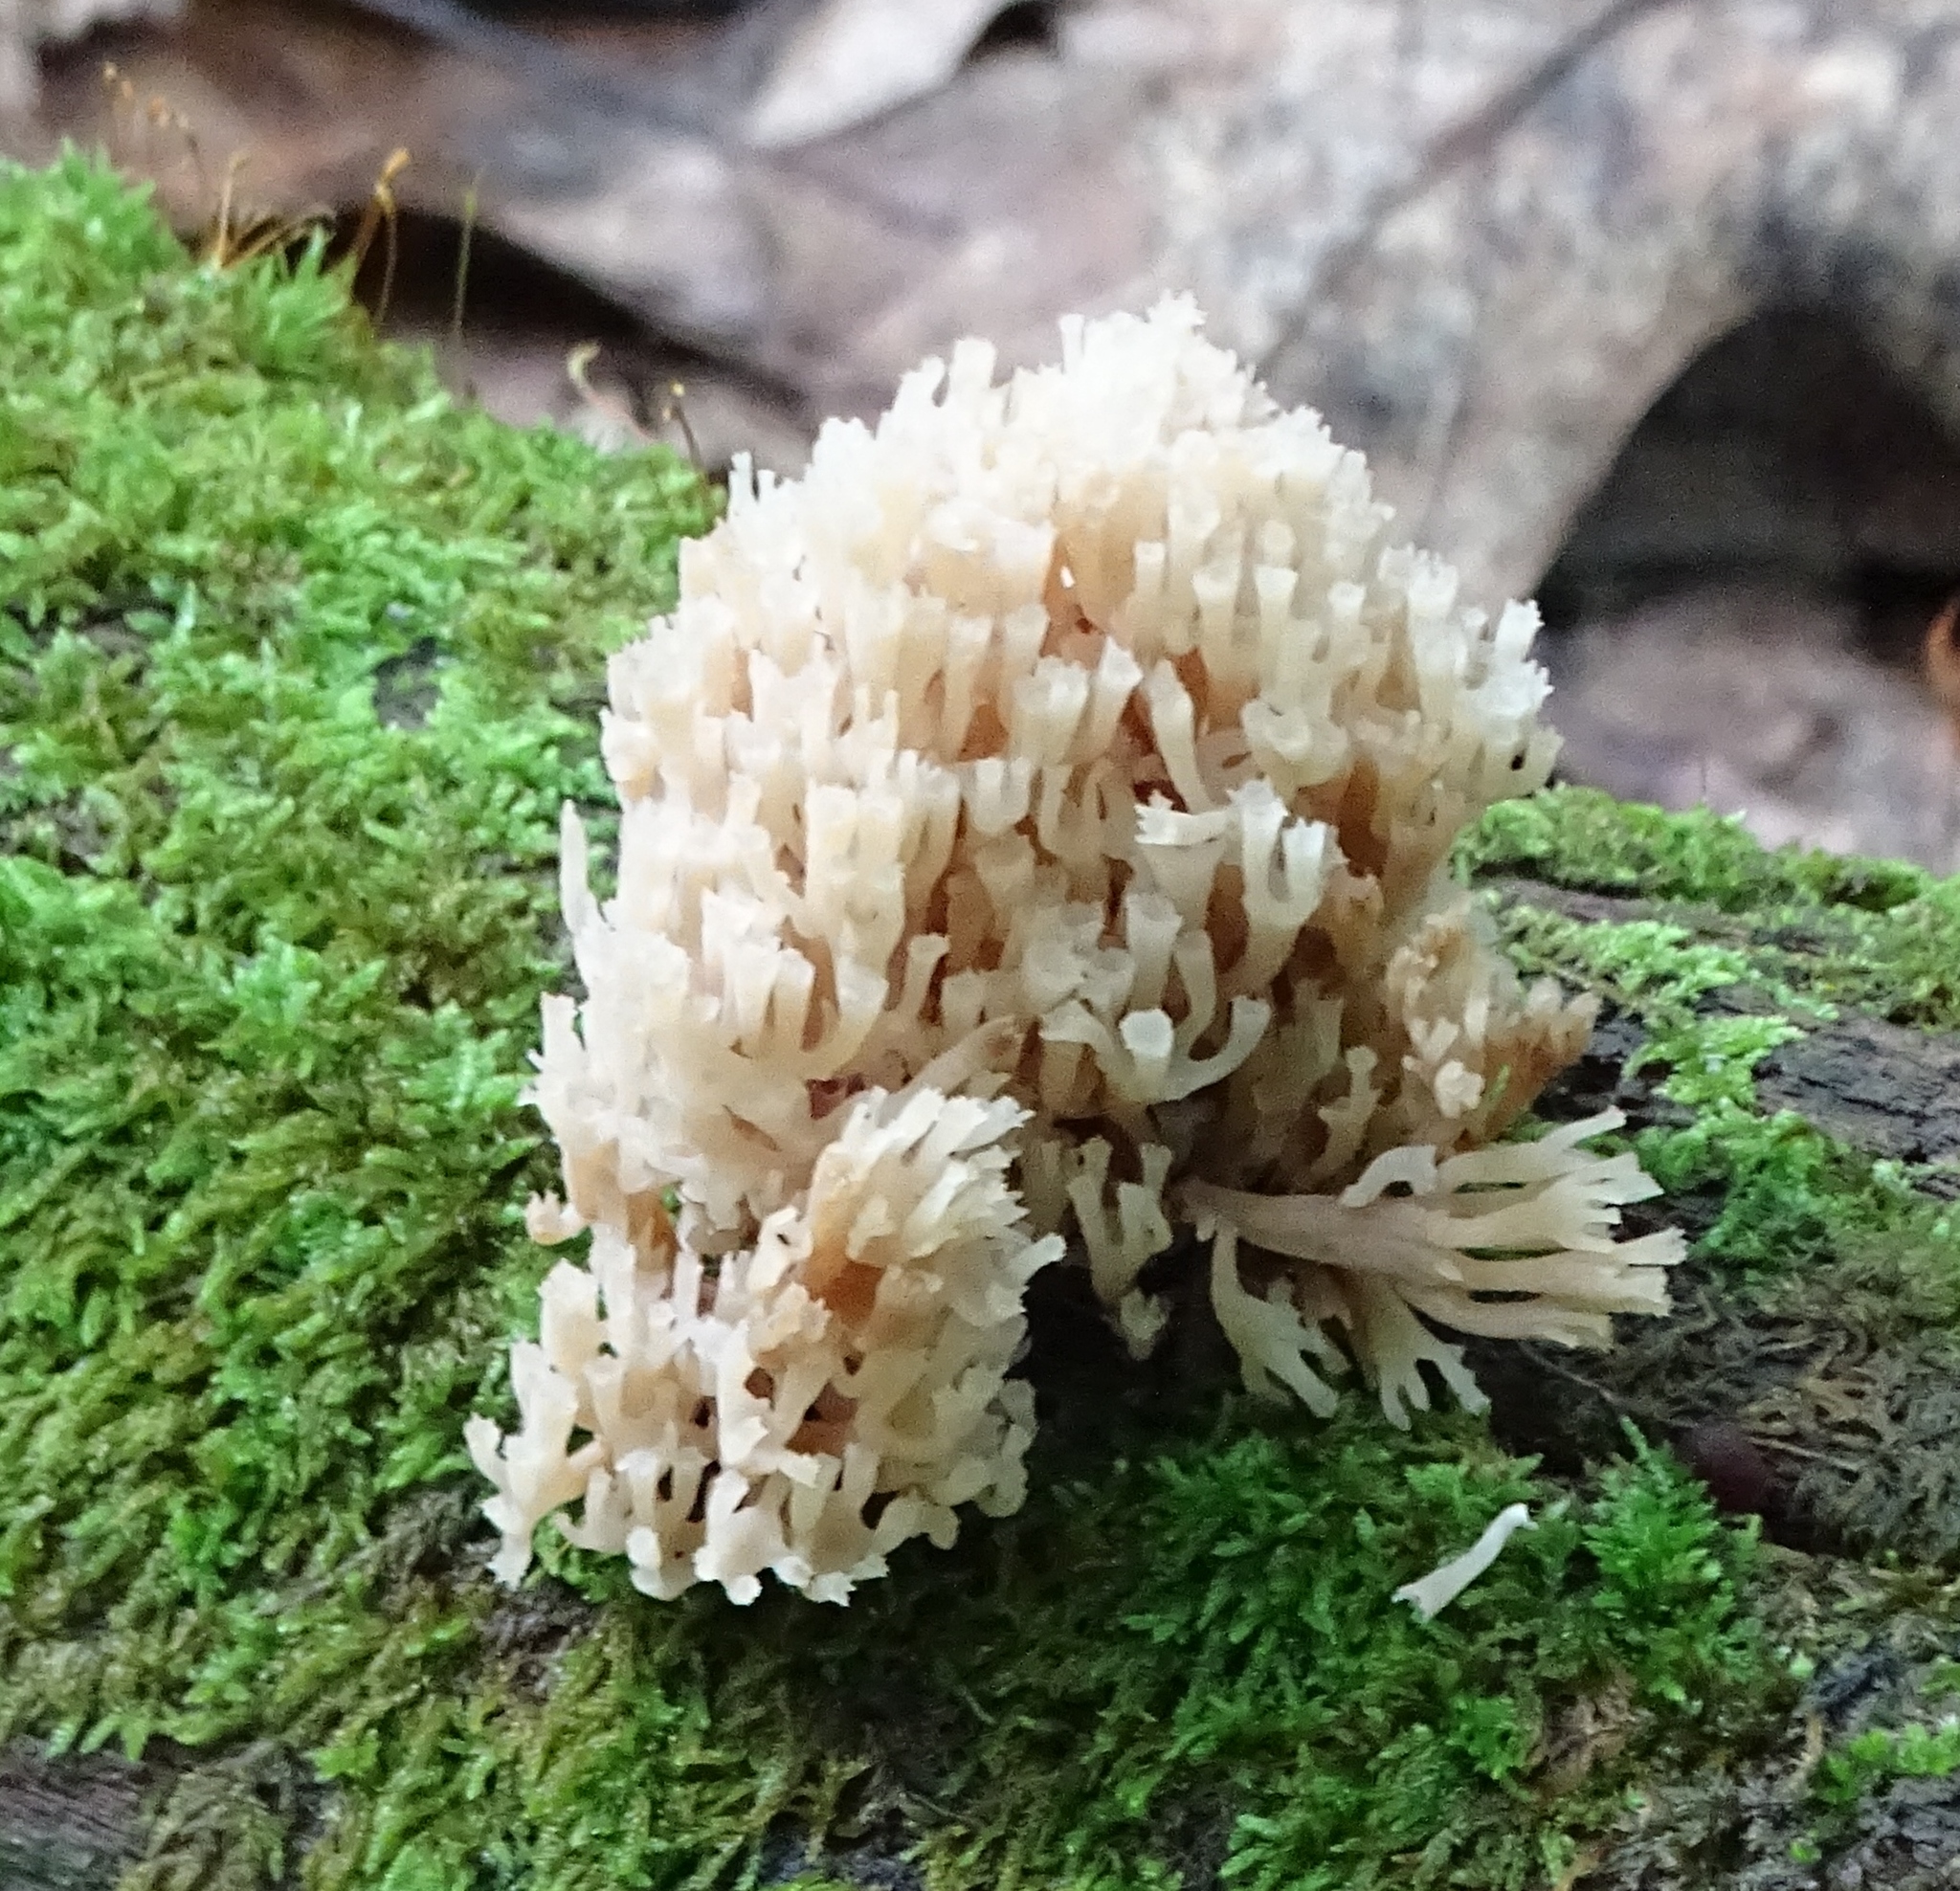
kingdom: Fungi
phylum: Basidiomycota
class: Agaricomycetes
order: Russulales
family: Auriscalpiaceae
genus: Artomyces
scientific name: Artomyces pyxidatus
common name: Crown-tipped coral fungus
